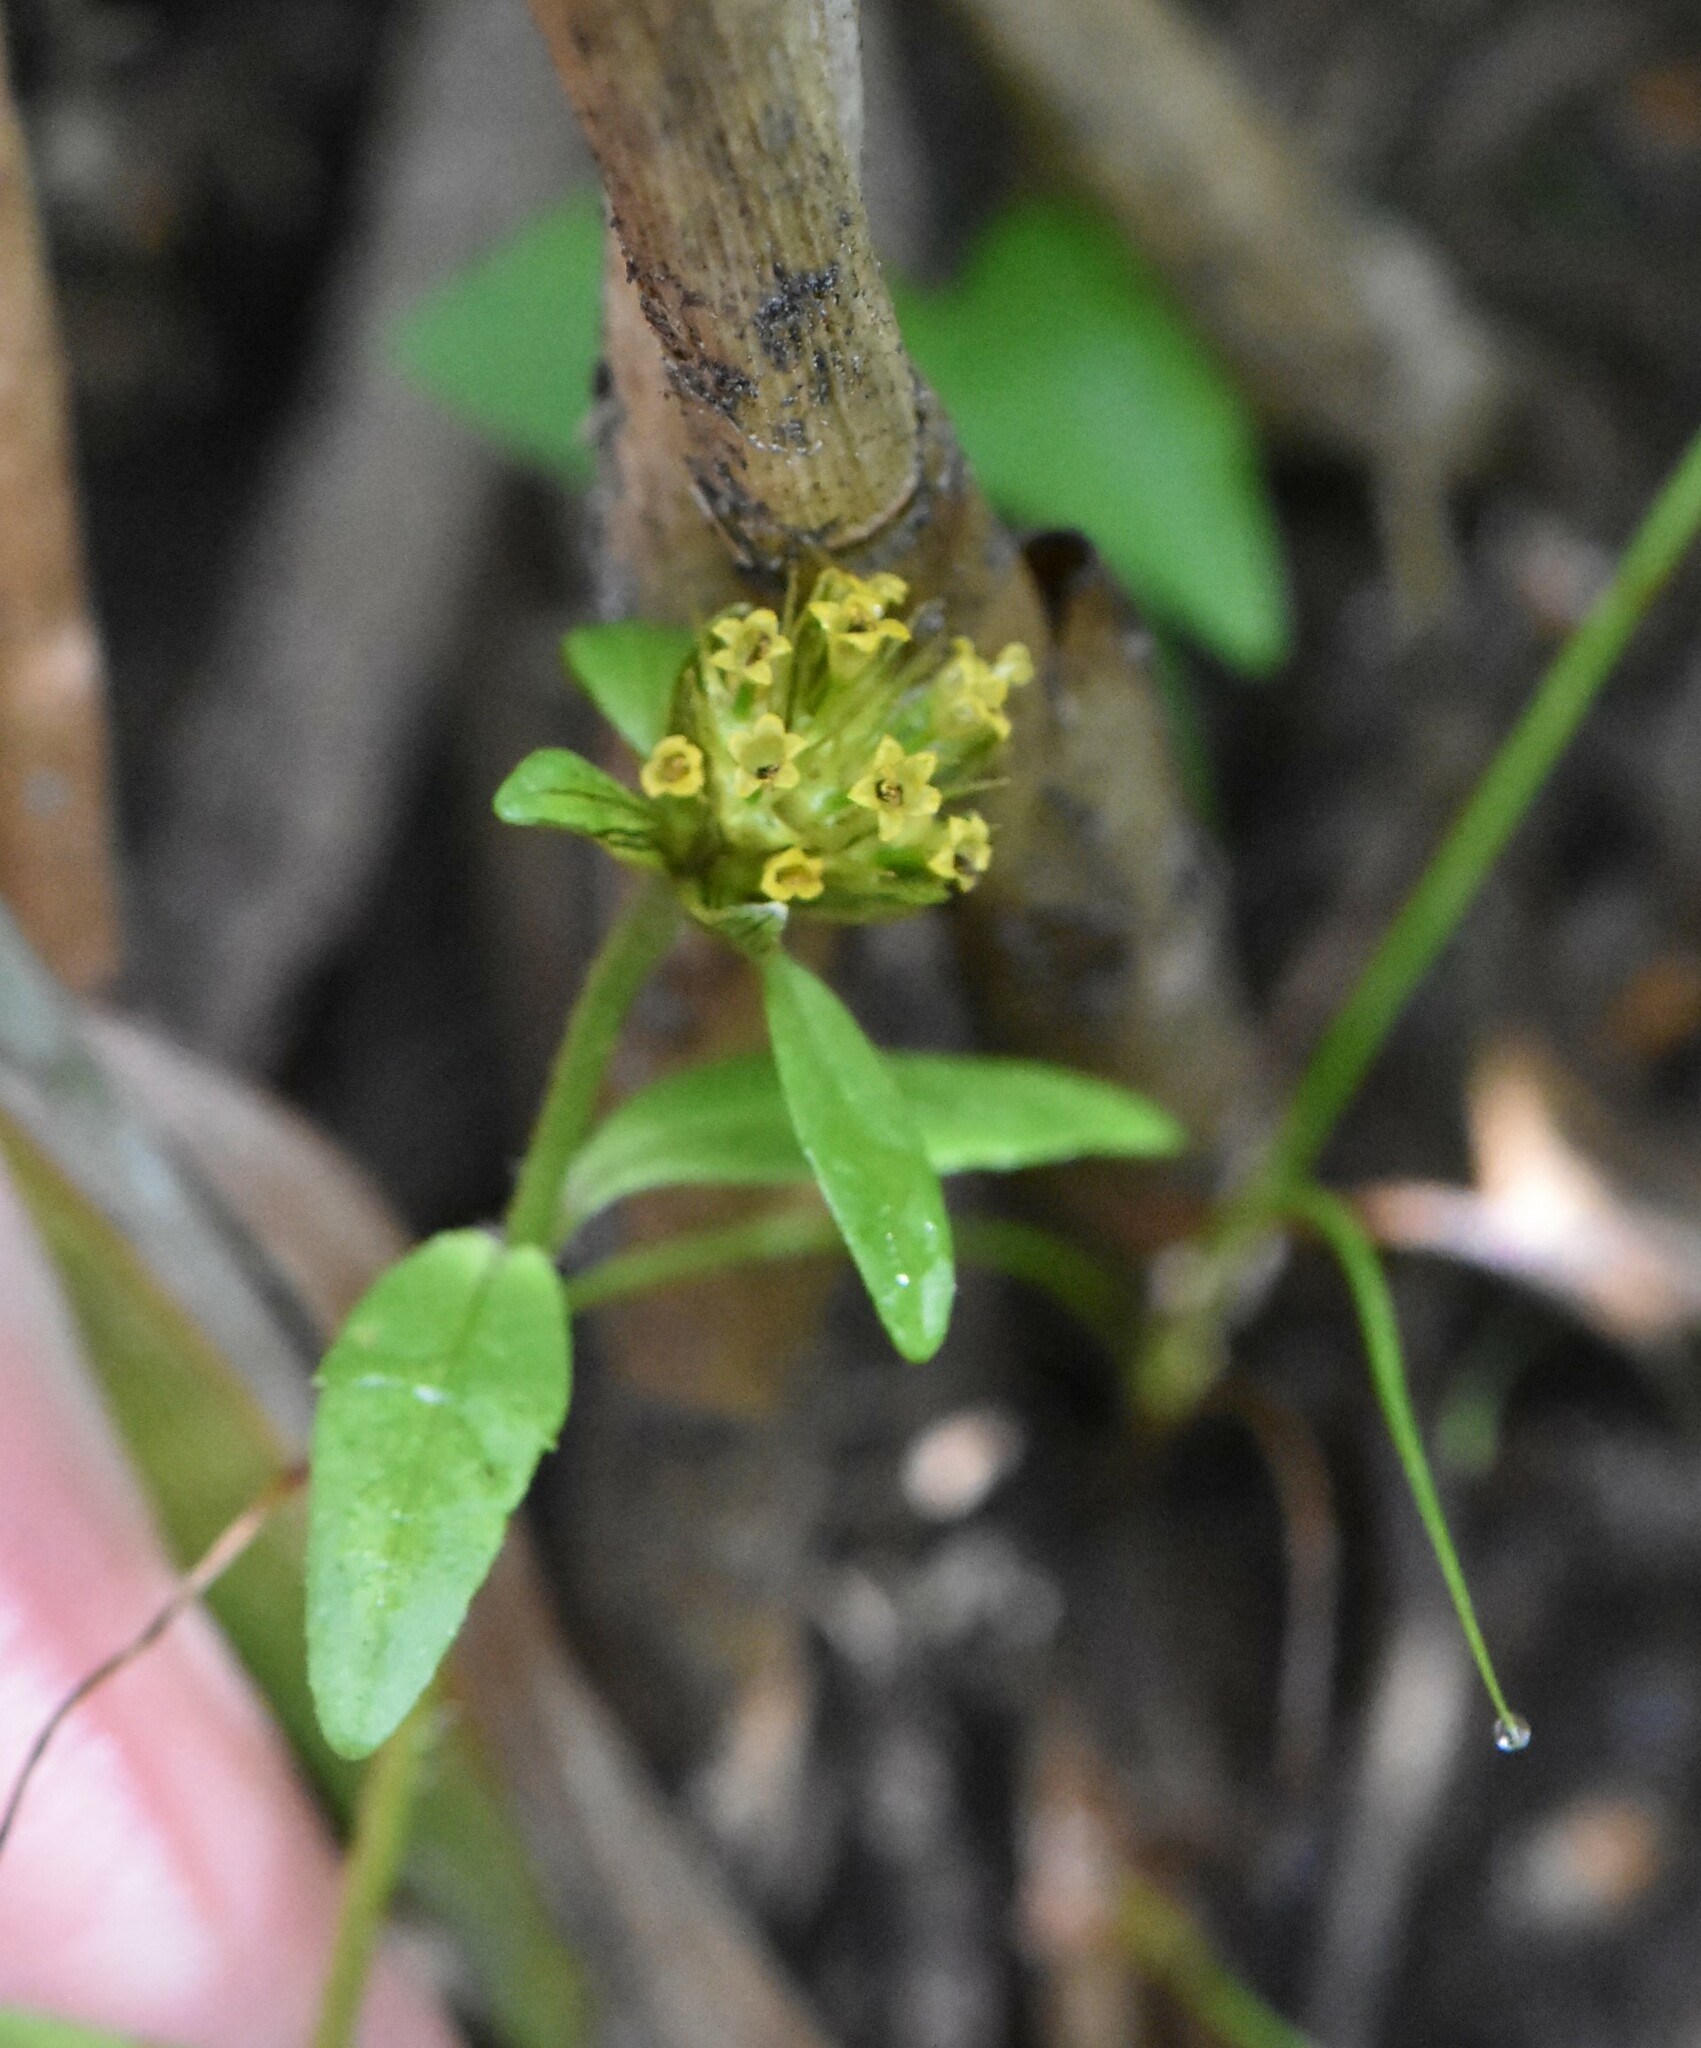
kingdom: Plantae
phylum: Tracheophyta
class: Magnoliopsida
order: Asterales
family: Asteraceae
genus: Bidens
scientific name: Bidens tripartita
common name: Trifid bur-marigold
